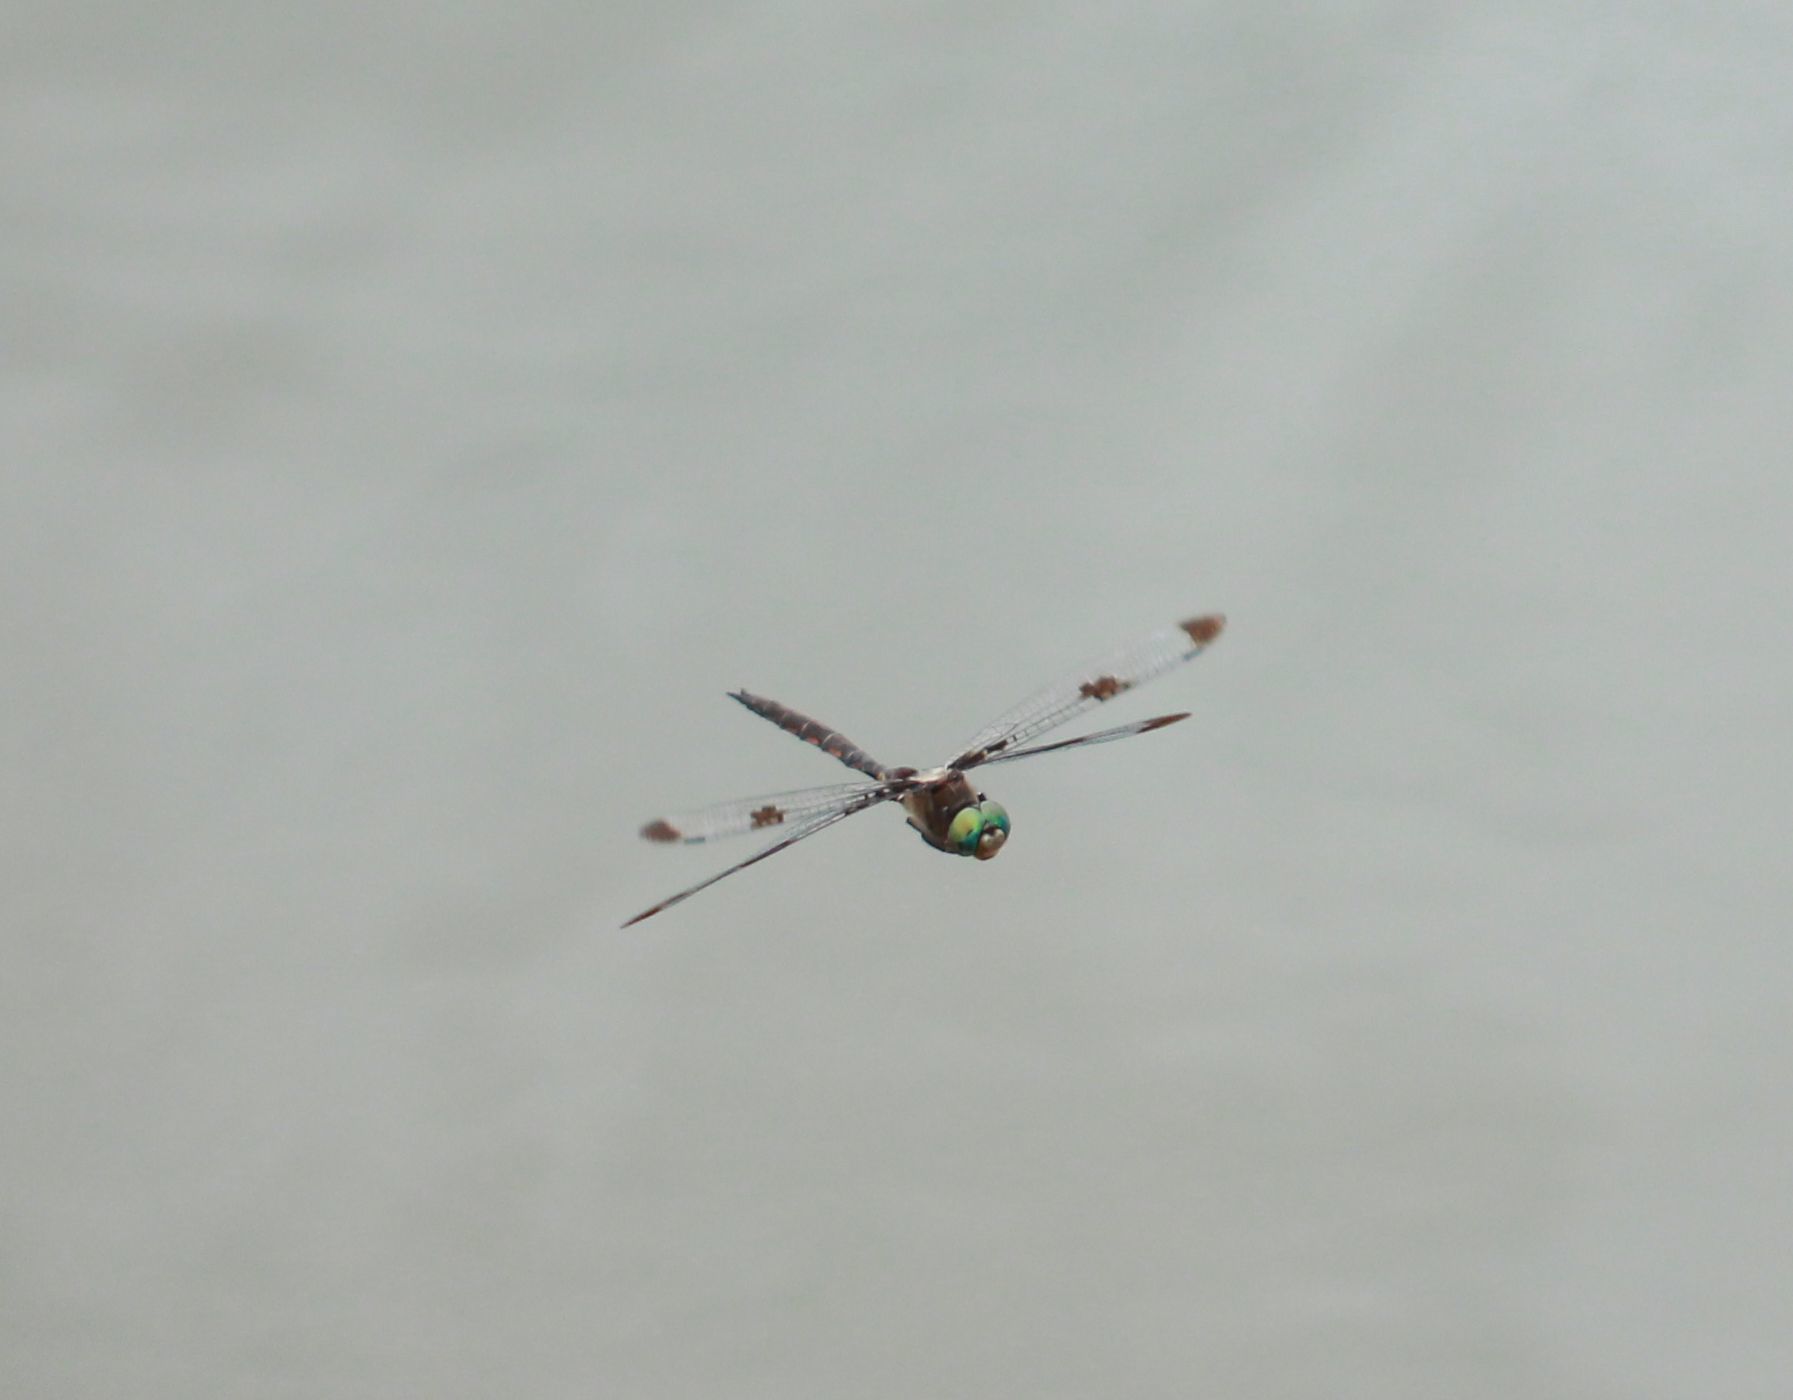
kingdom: Animalia
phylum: Arthropoda
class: Insecta
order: Odonata
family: Corduliidae
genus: Epitheca
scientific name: Epitheca princeps
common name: Prince baskettail
